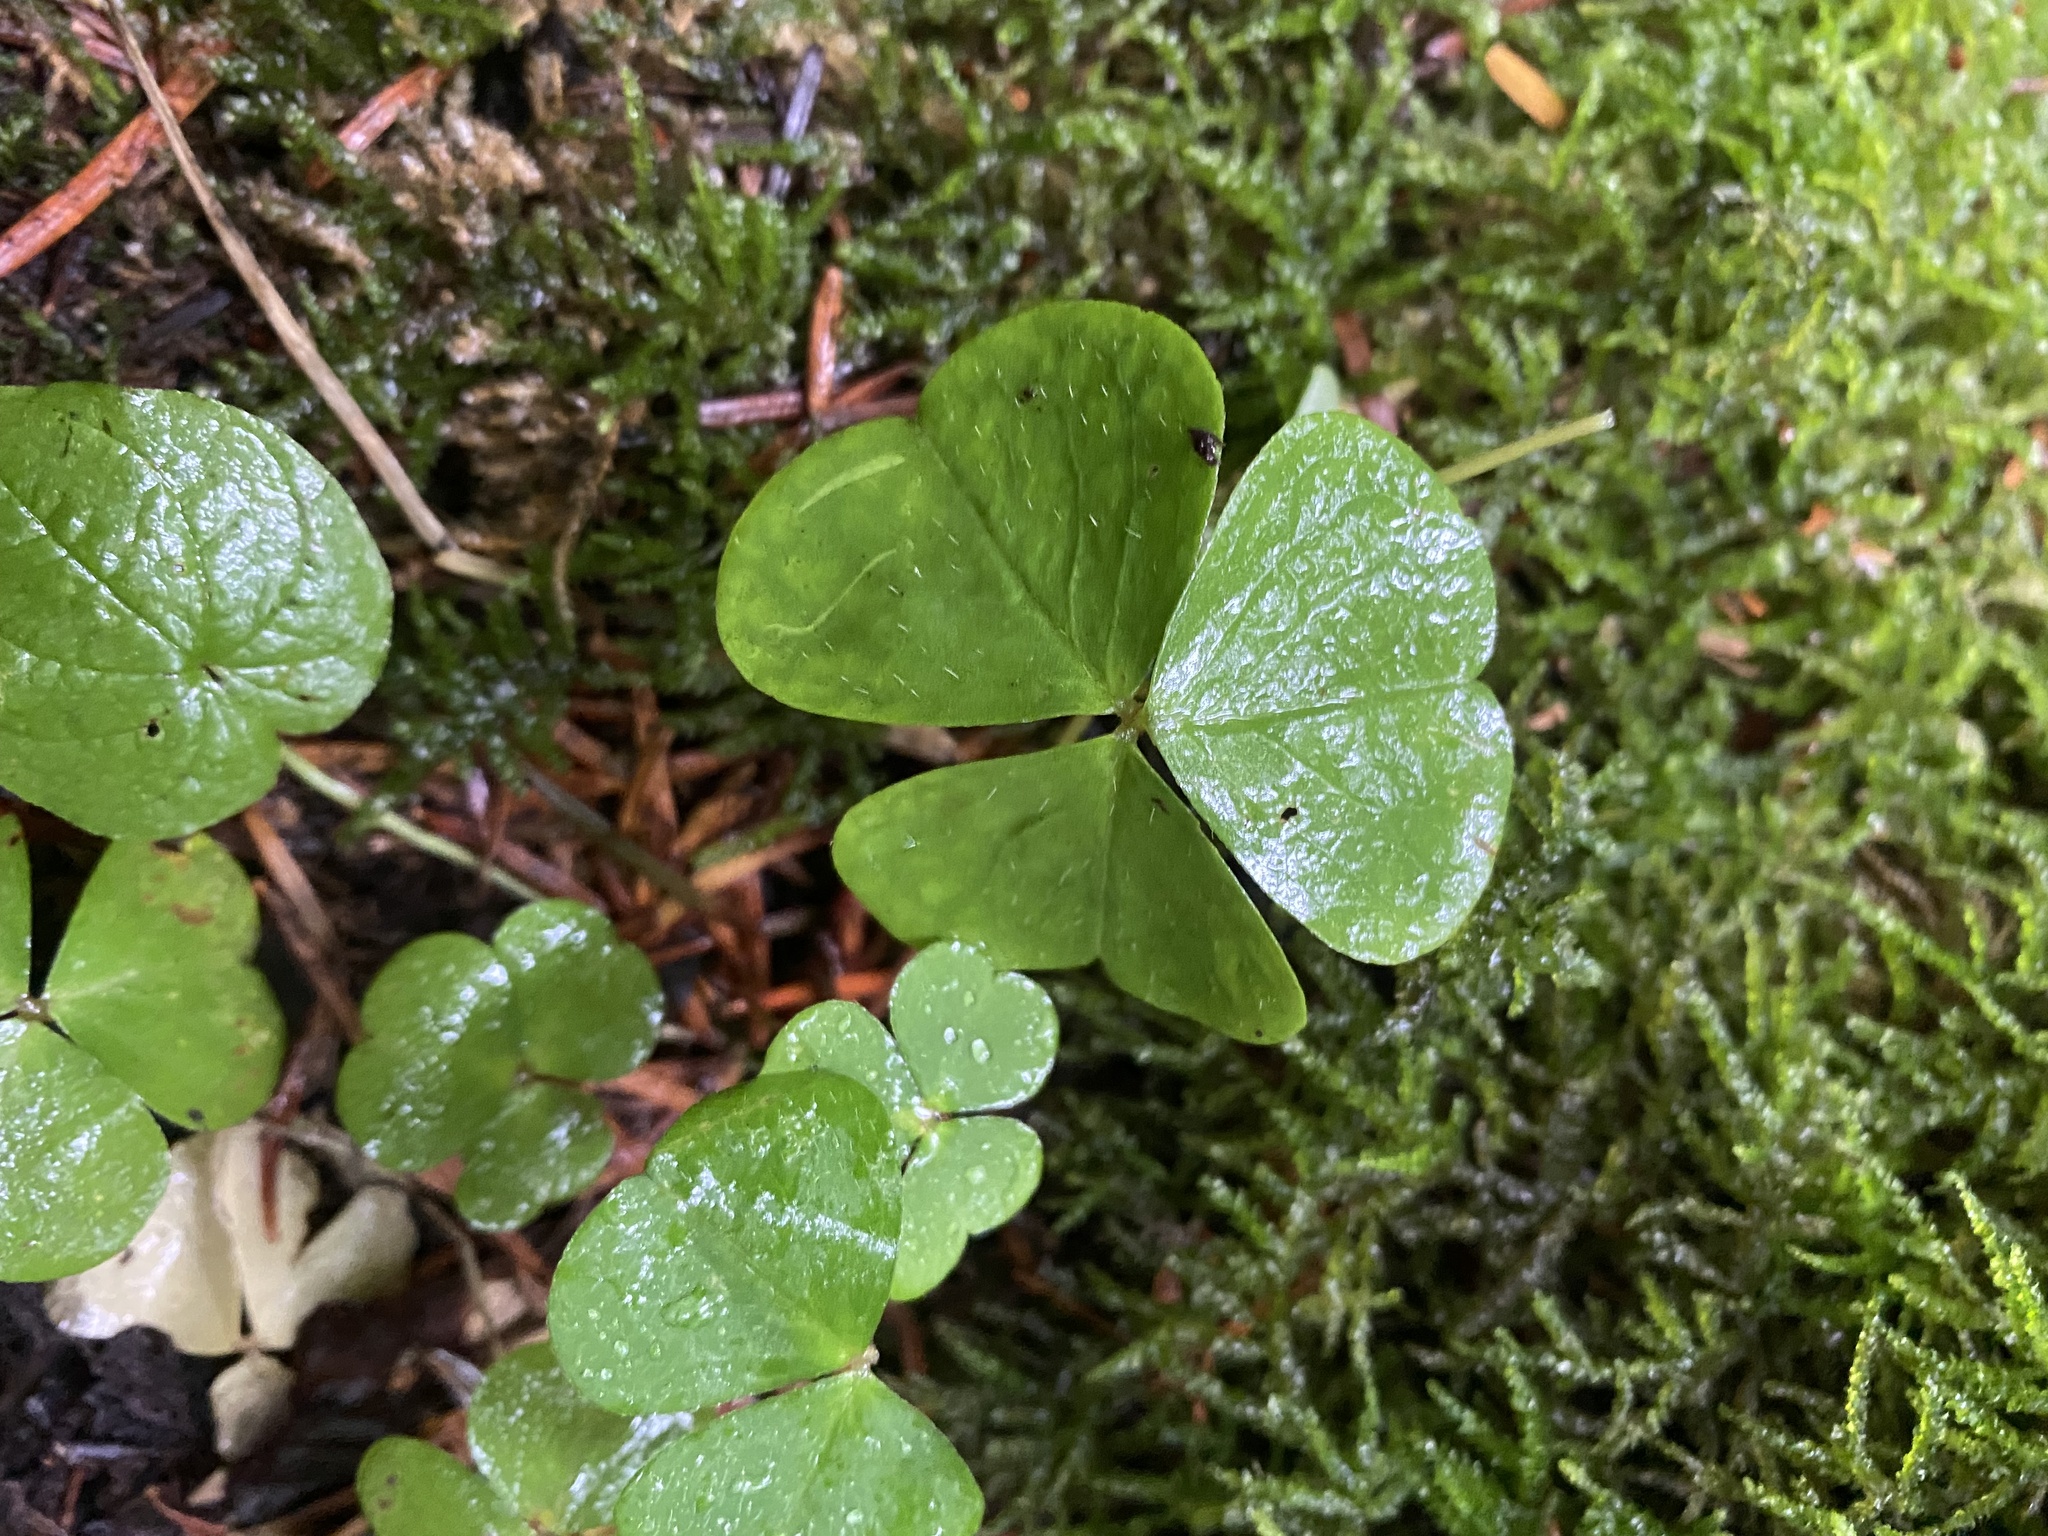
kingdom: Plantae
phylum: Tracheophyta
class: Magnoliopsida
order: Oxalidales
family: Oxalidaceae
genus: Oxalis
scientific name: Oxalis acetosella
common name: Wood-sorrel
